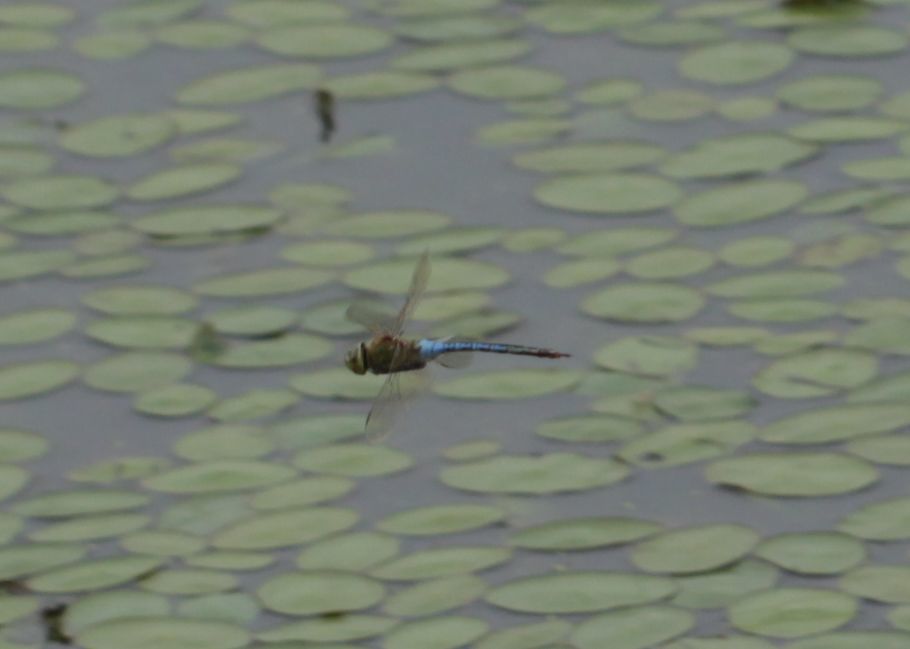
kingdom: Animalia
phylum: Arthropoda
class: Insecta
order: Odonata
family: Aeshnidae
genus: Anax
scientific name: Anax junius
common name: Common green darner
